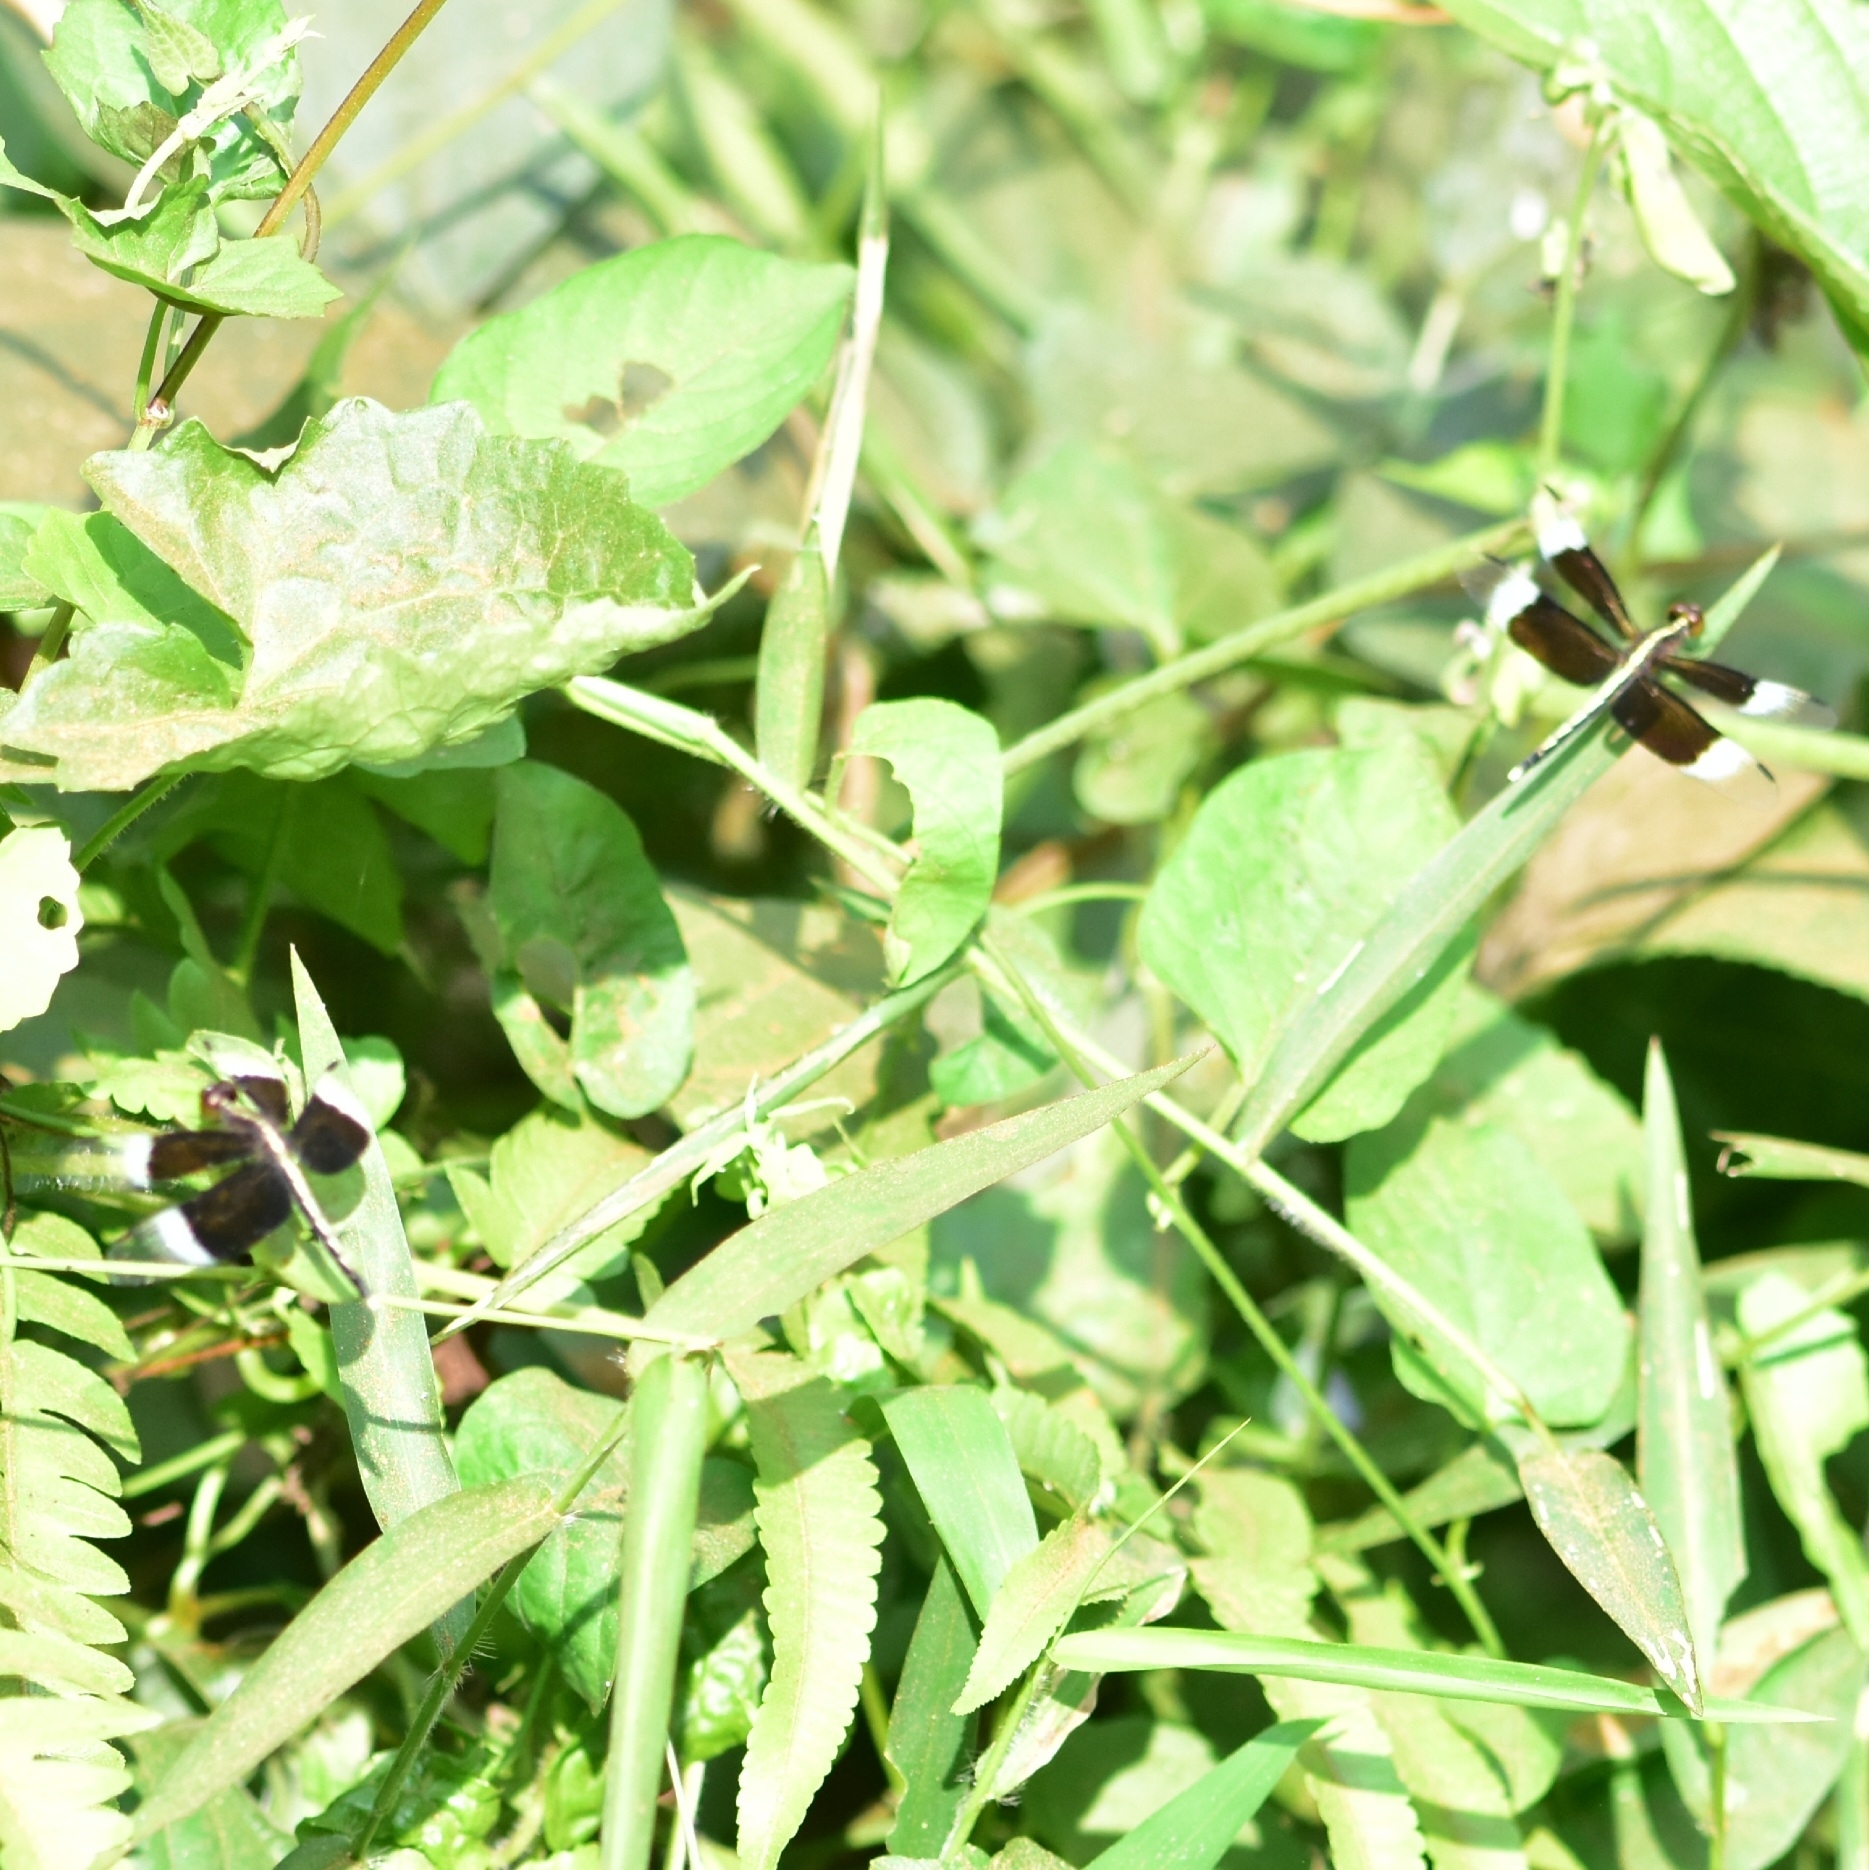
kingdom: Animalia
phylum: Arthropoda
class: Insecta
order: Odonata
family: Libellulidae
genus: Neurothemis
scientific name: Neurothemis tullia
